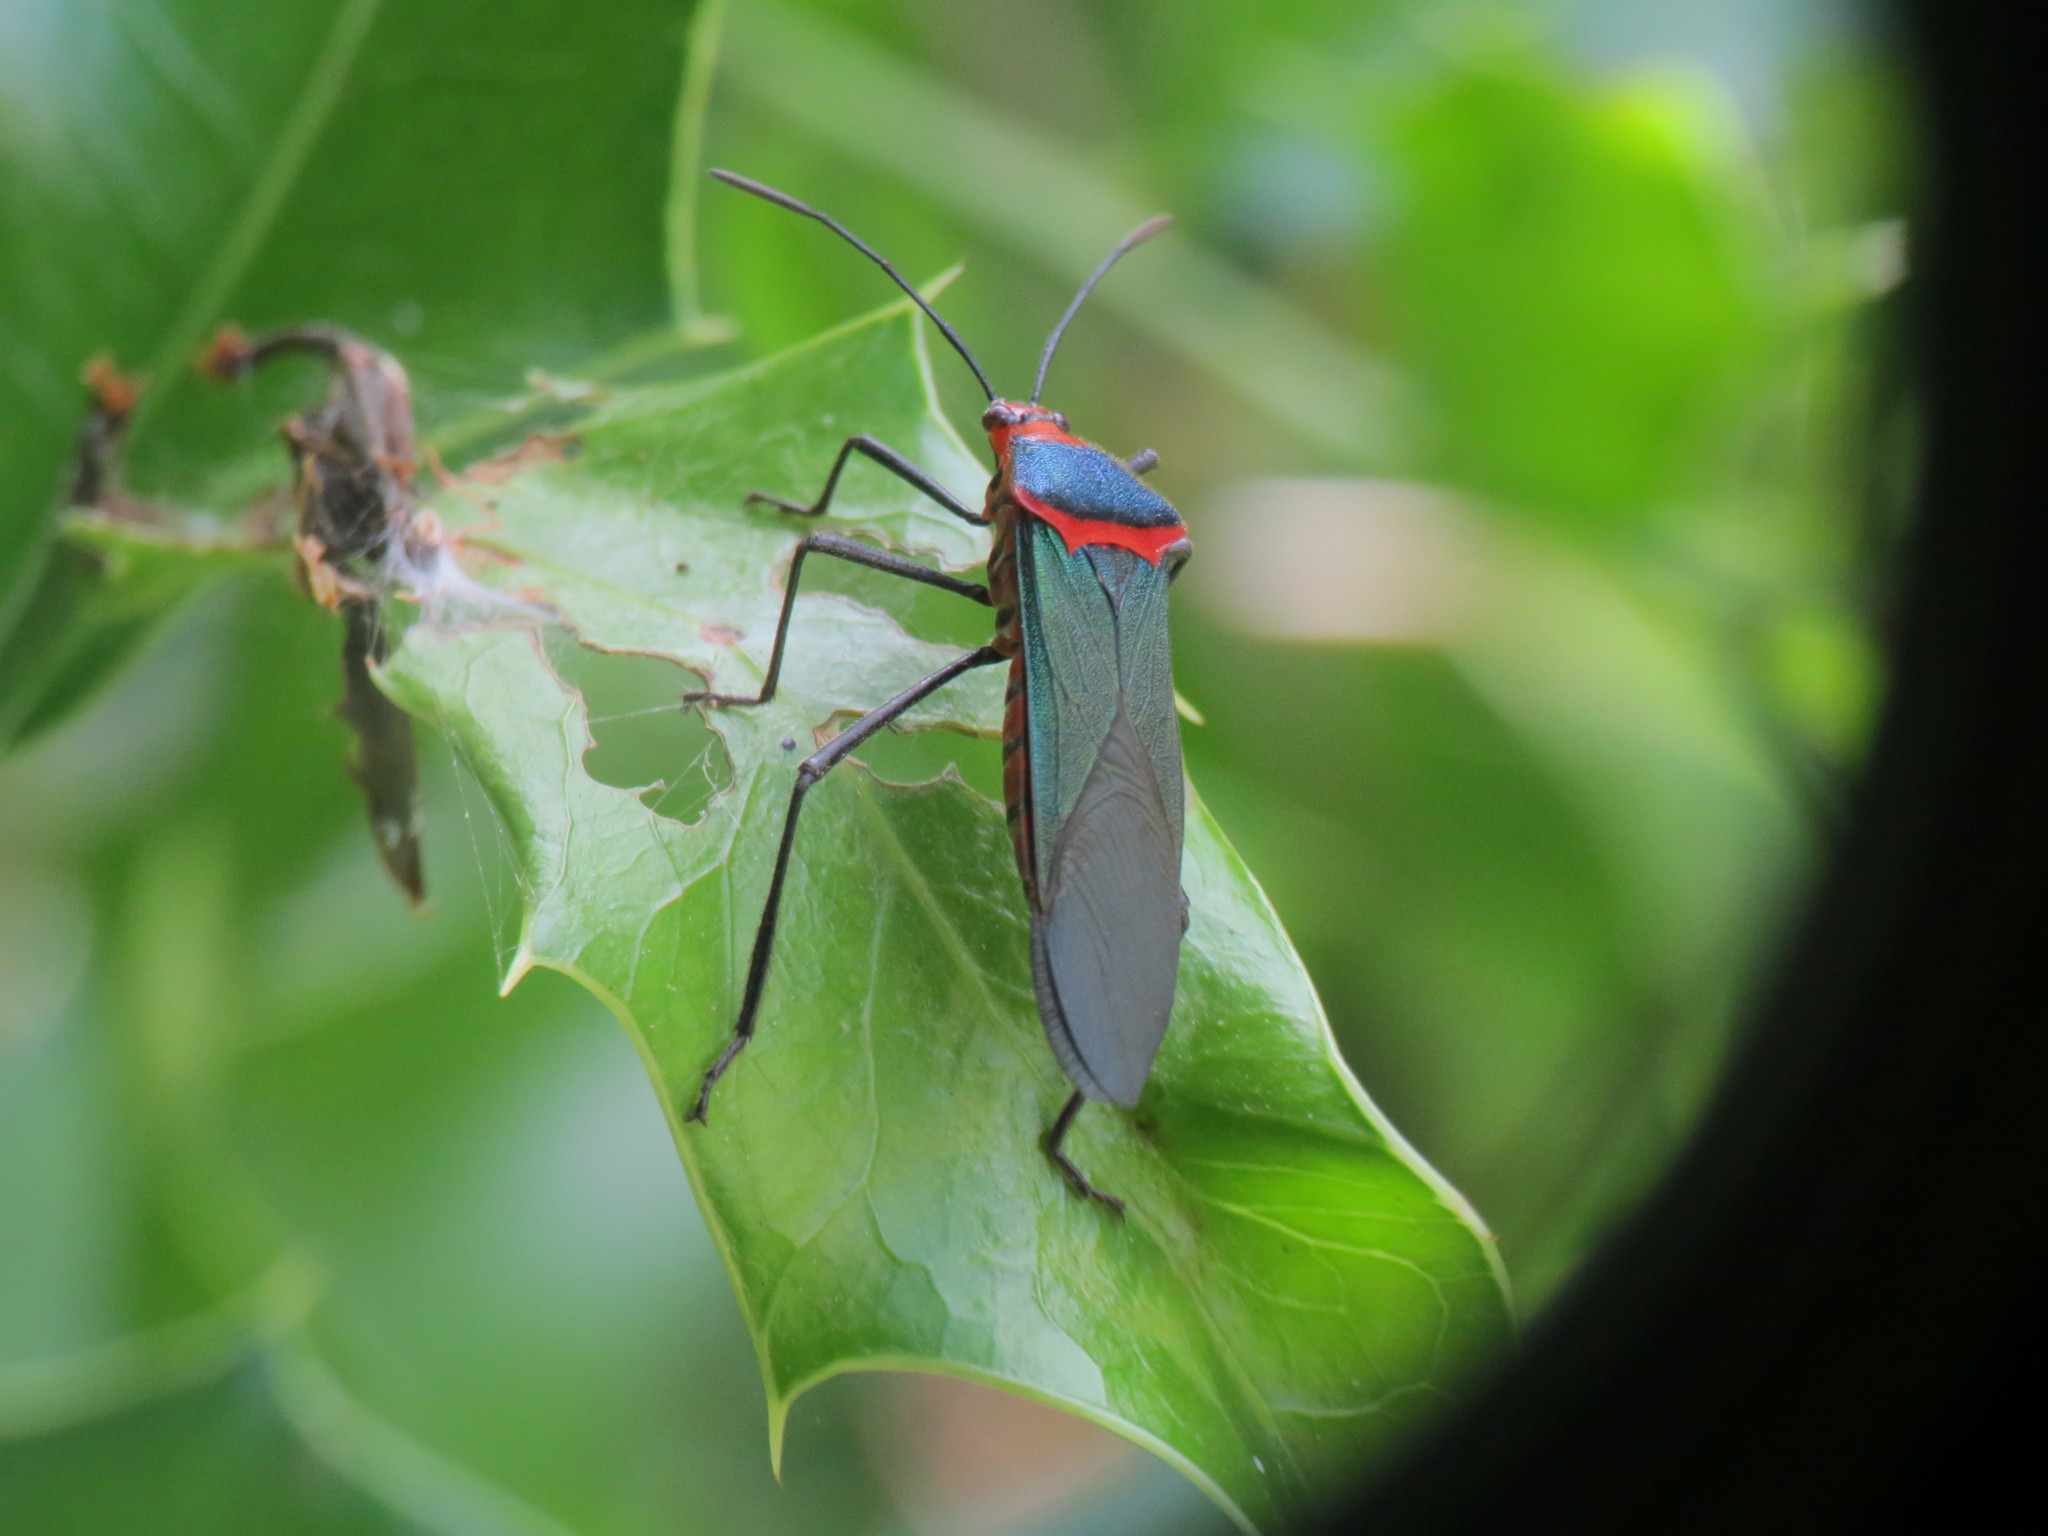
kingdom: Animalia
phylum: Arthropoda
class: Insecta
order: Hemiptera
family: Coreidae
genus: Sphictyrtus
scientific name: Sphictyrtus chrysis
